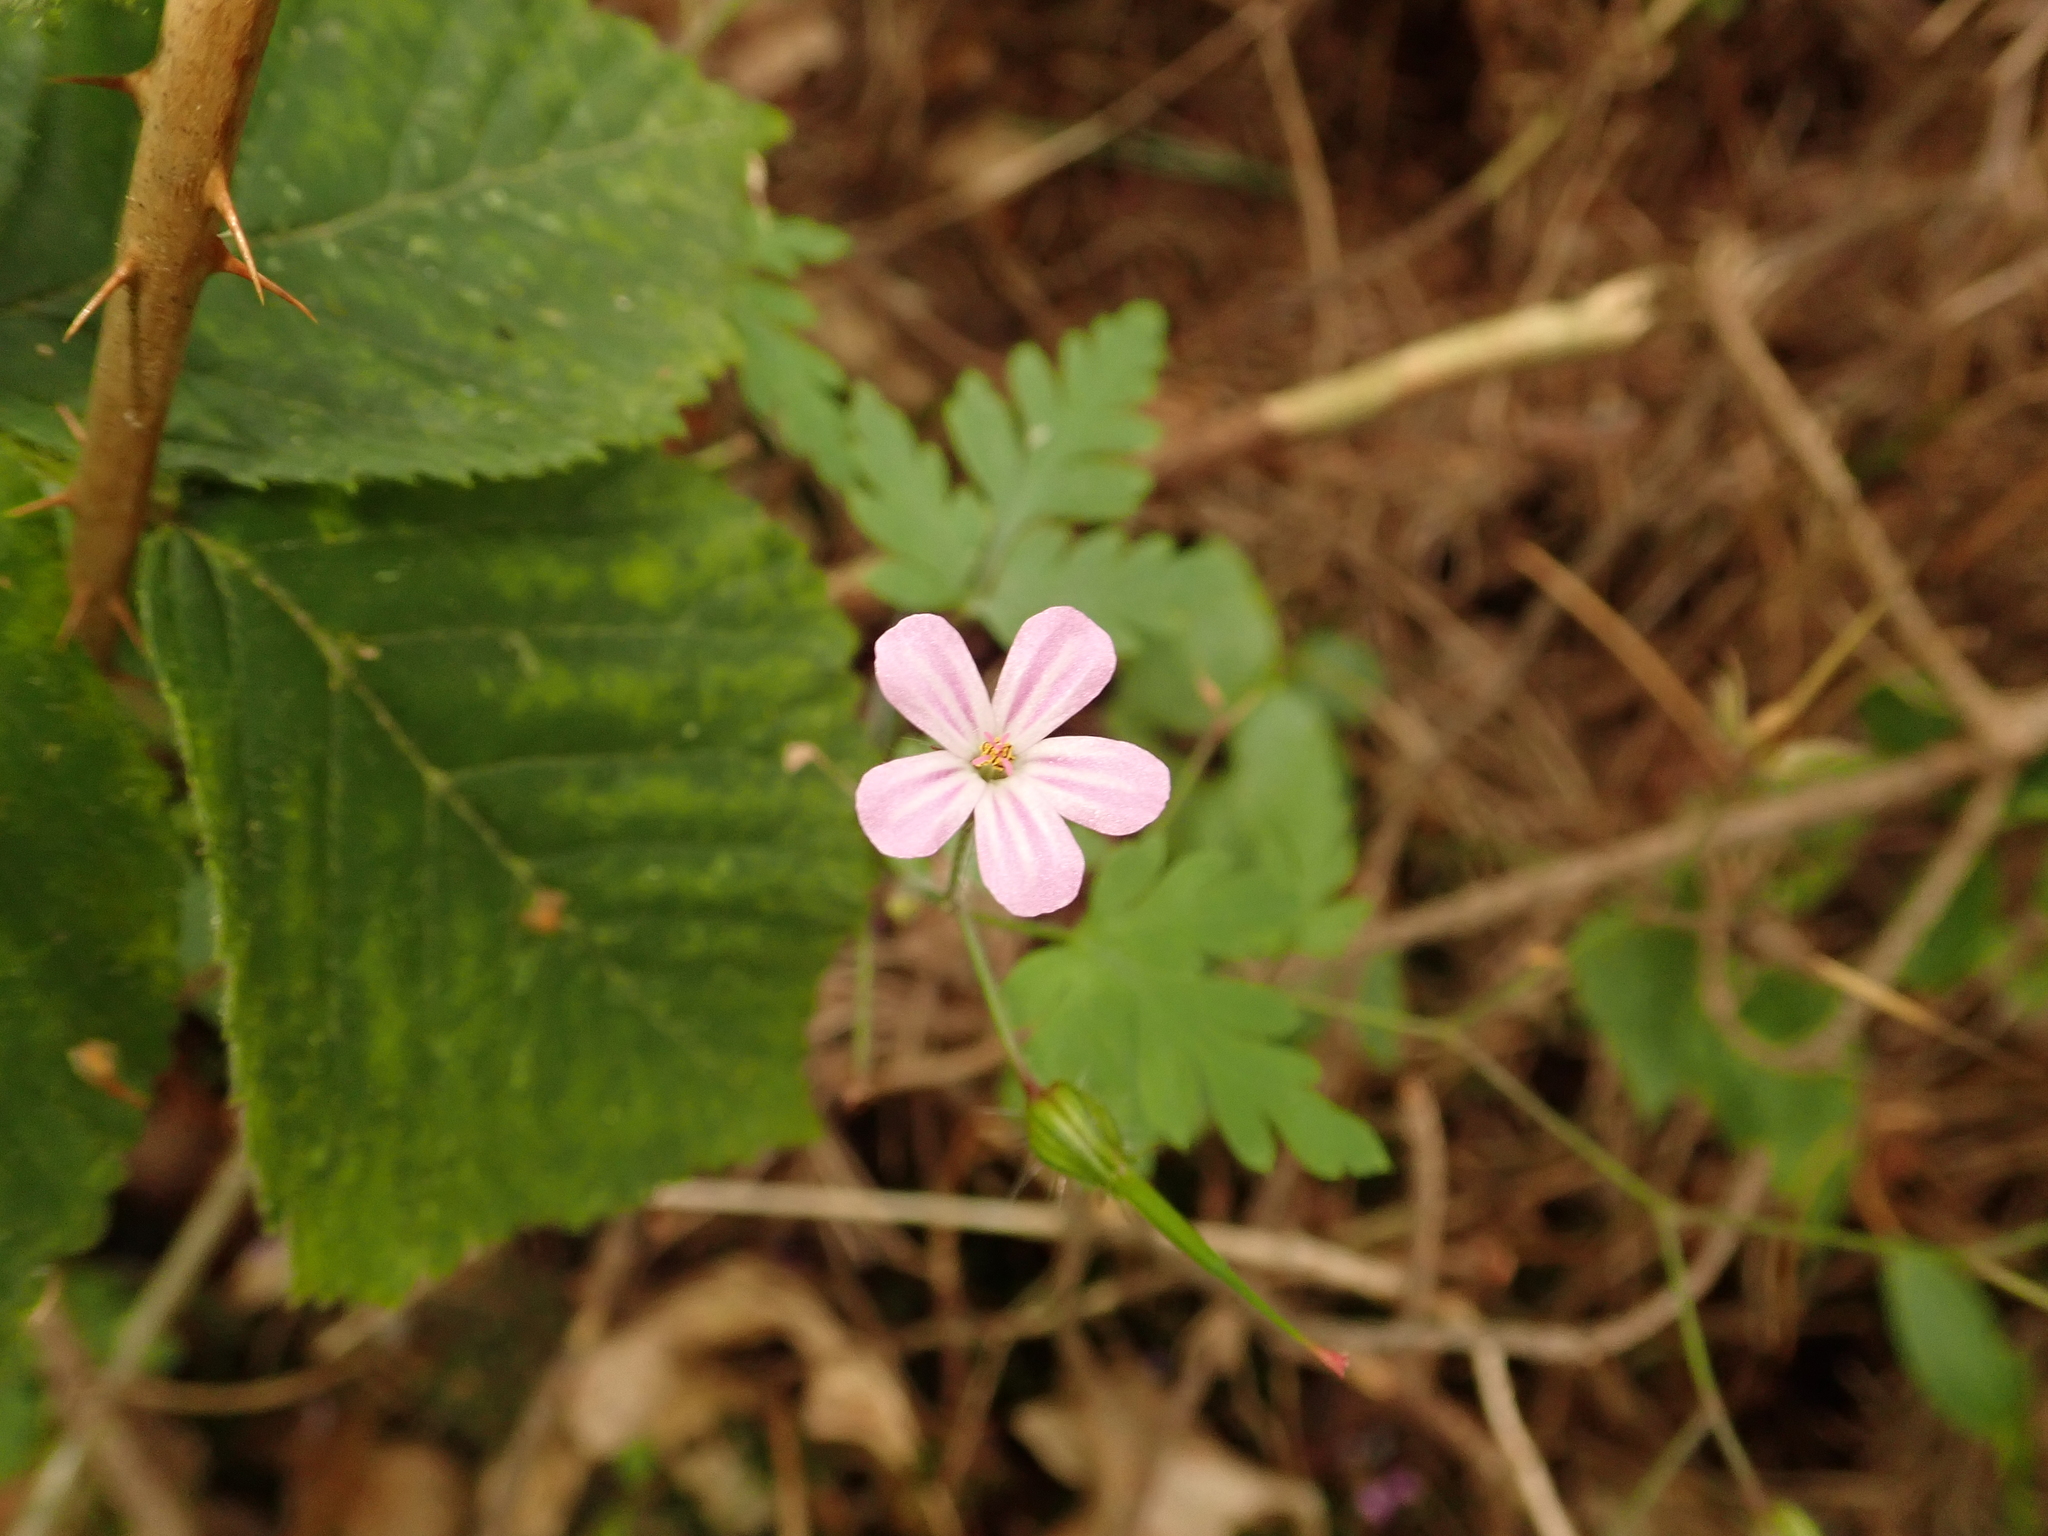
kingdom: Plantae
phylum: Tracheophyta
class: Magnoliopsida
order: Geraniales
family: Geraniaceae
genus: Geranium
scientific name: Geranium robertianum
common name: Herb-robert
